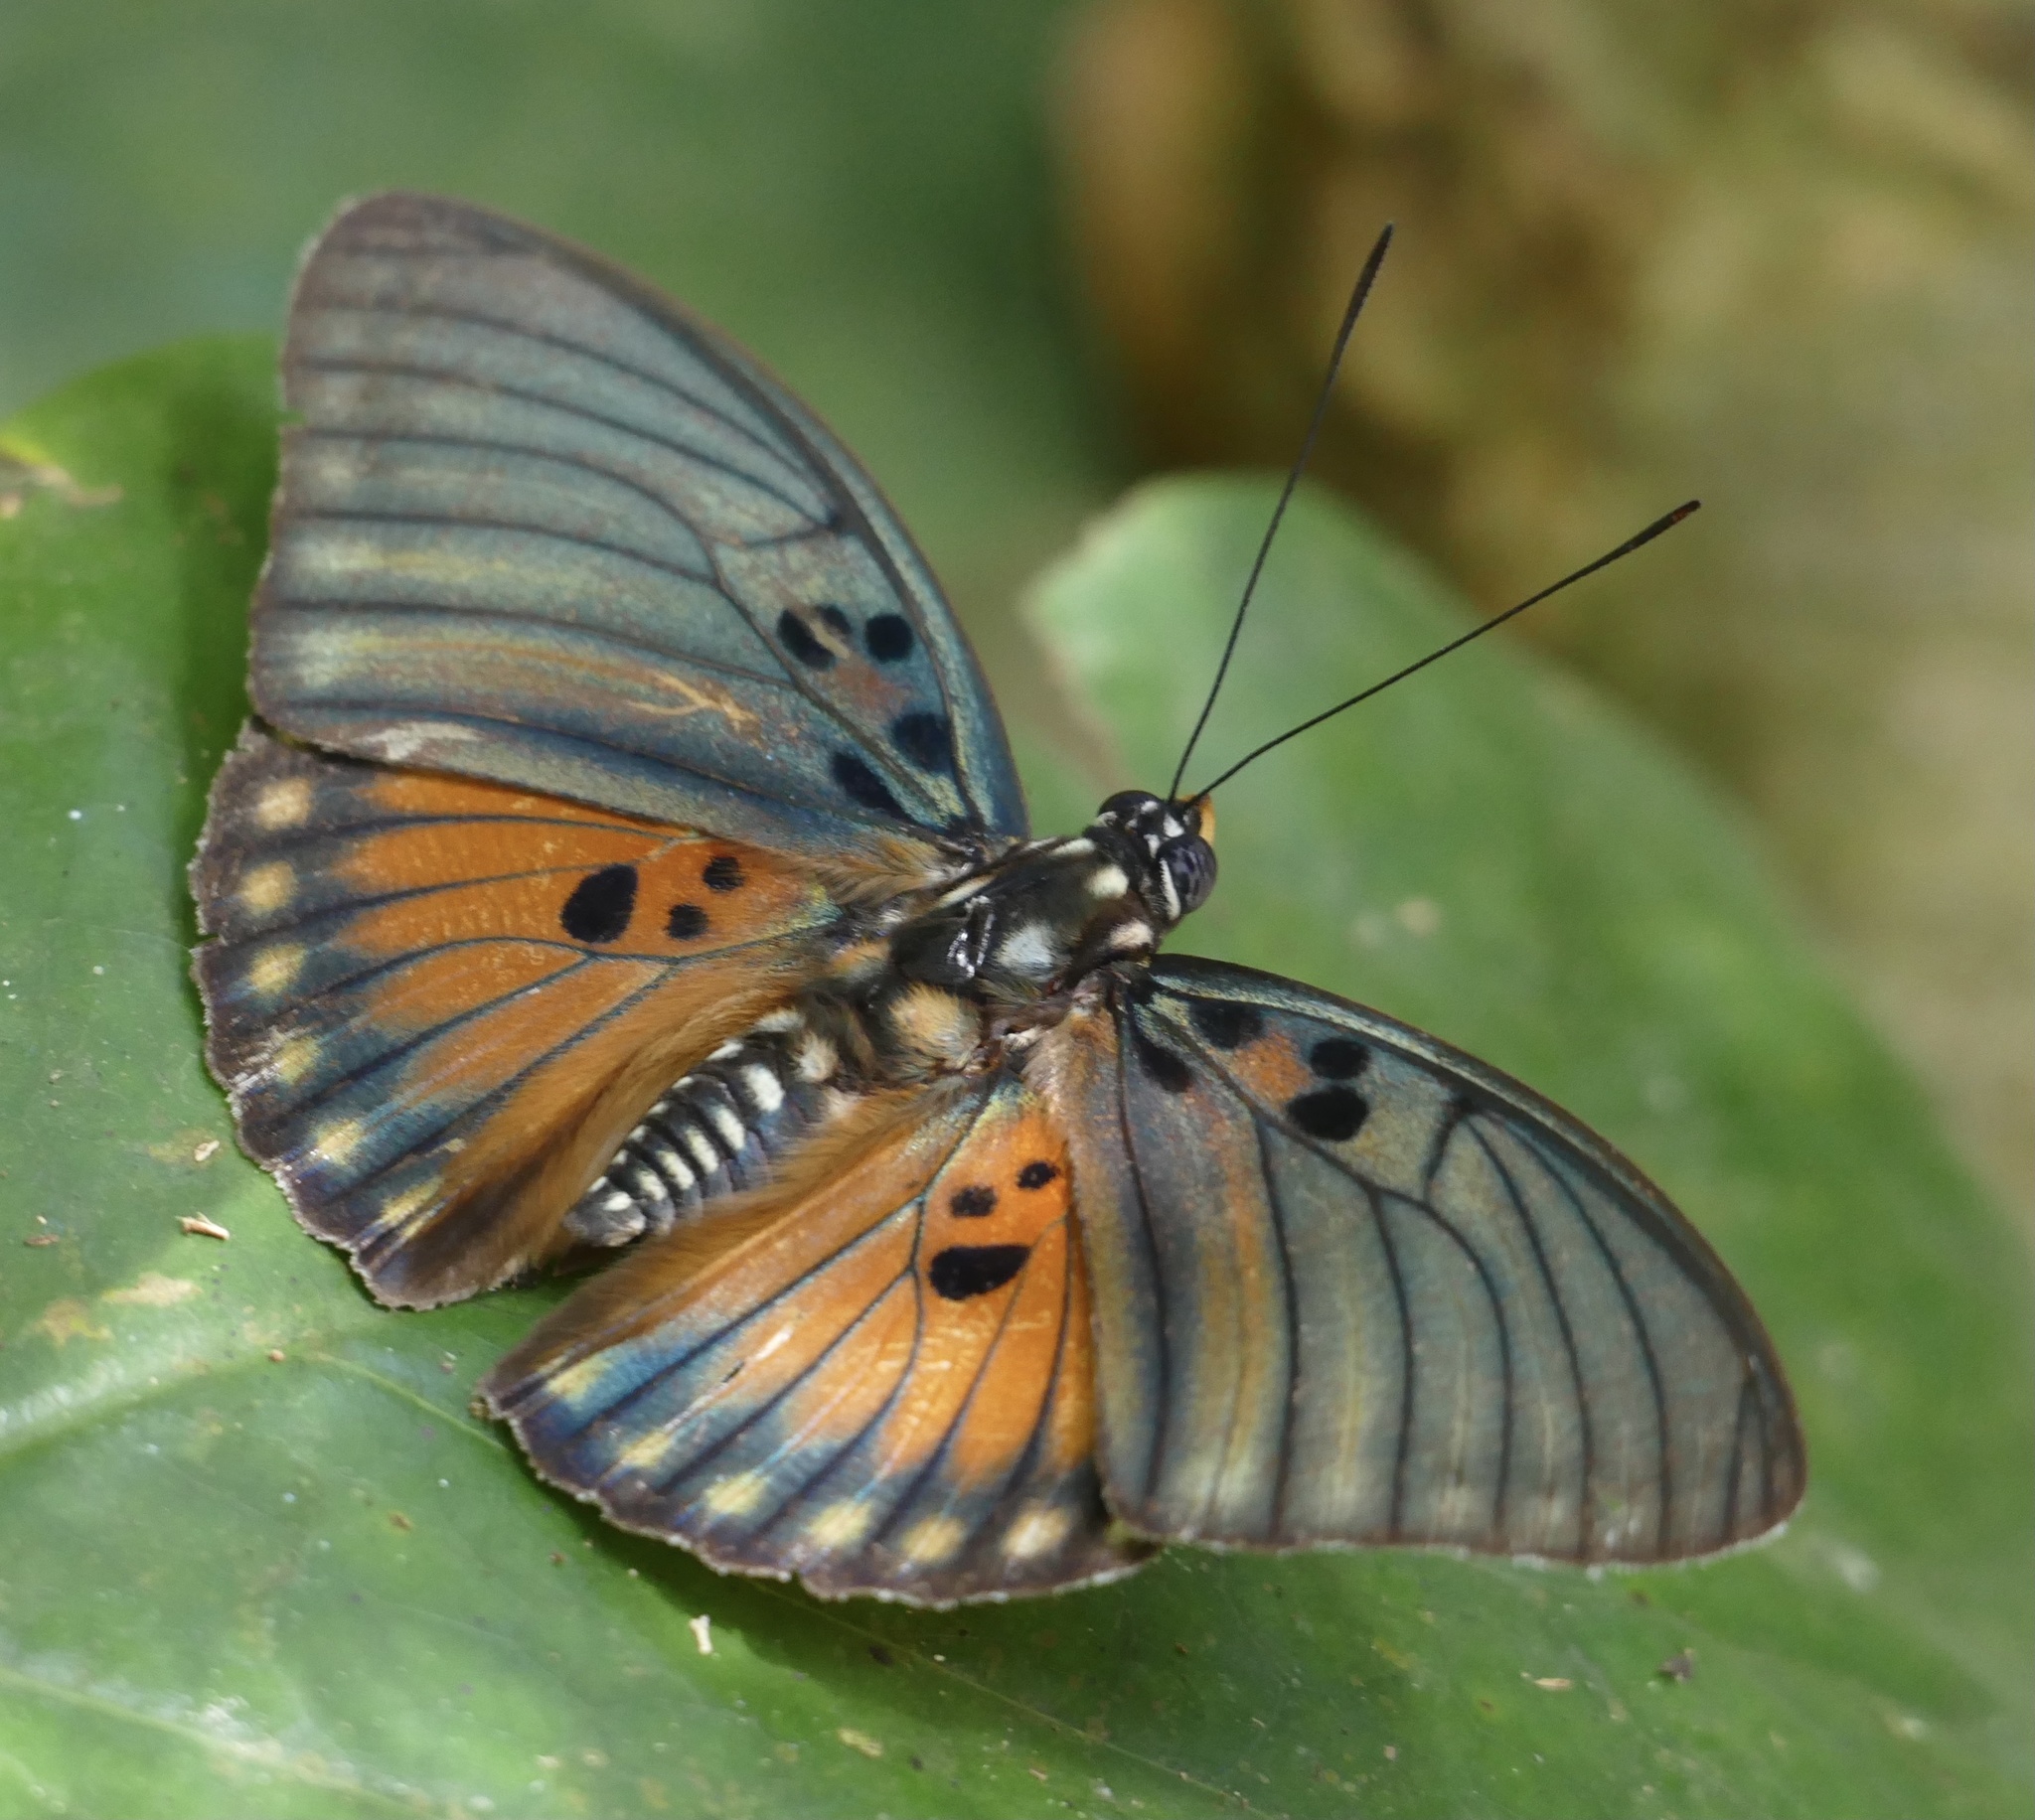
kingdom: Animalia
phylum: Arthropoda
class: Insecta
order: Lepidoptera
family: Nymphalidae
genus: Euphaedra
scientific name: Euphaedra edwardsii
